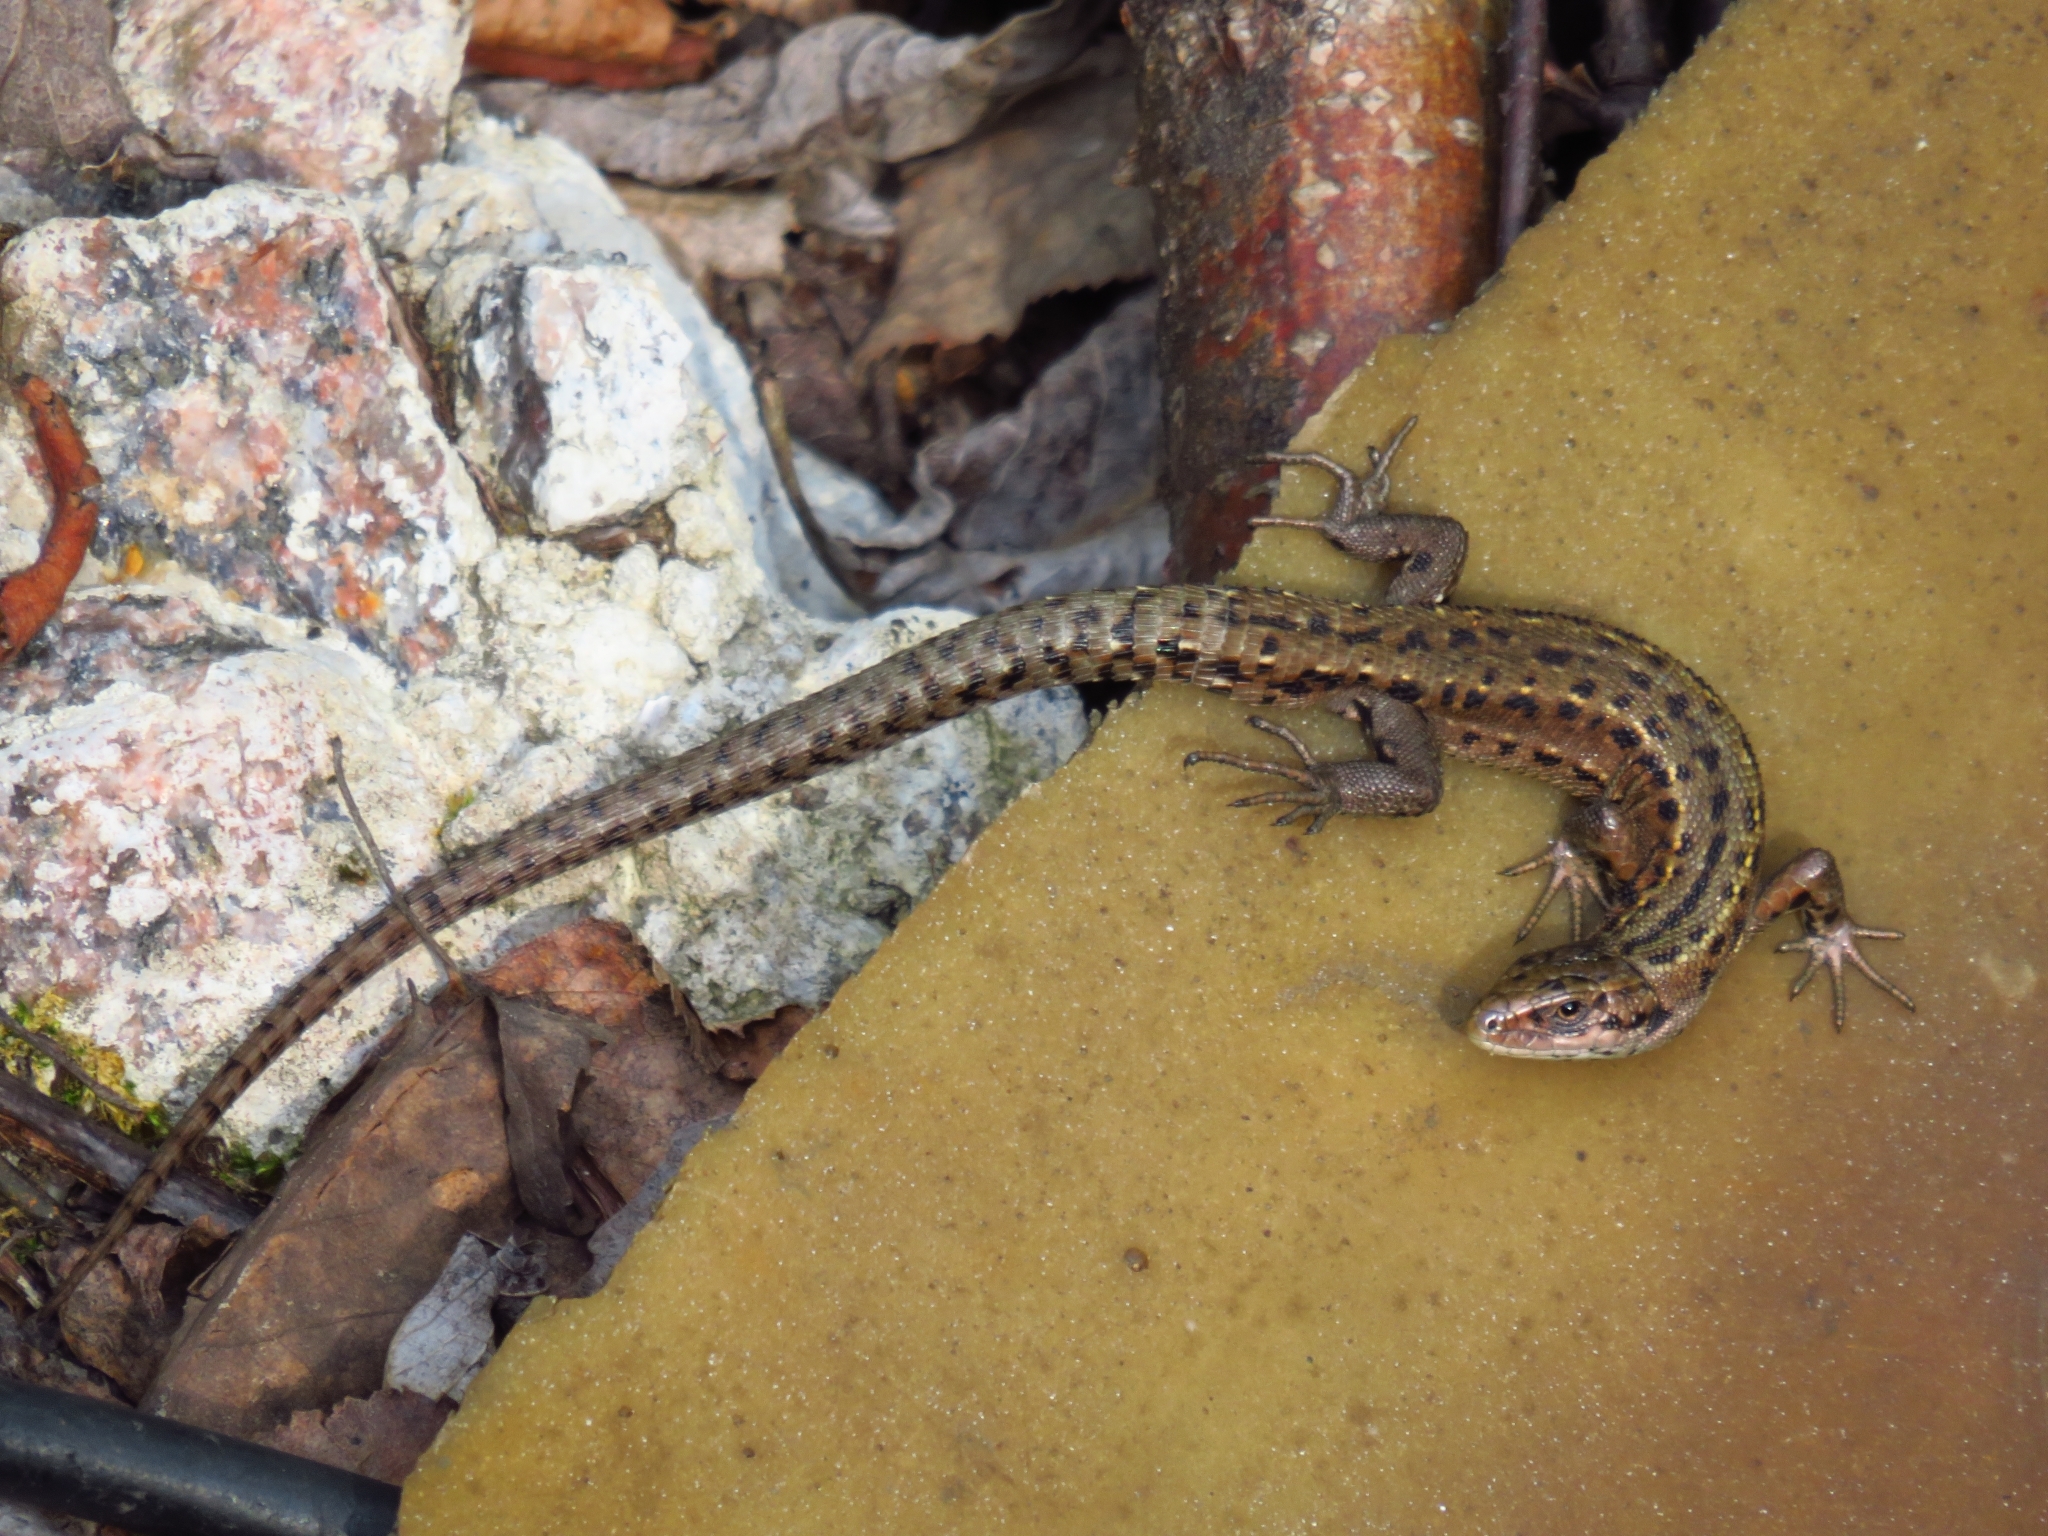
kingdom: Animalia
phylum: Chordata
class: Squamata
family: Lacertidae
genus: Zootoca
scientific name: Zootoca vivipara
